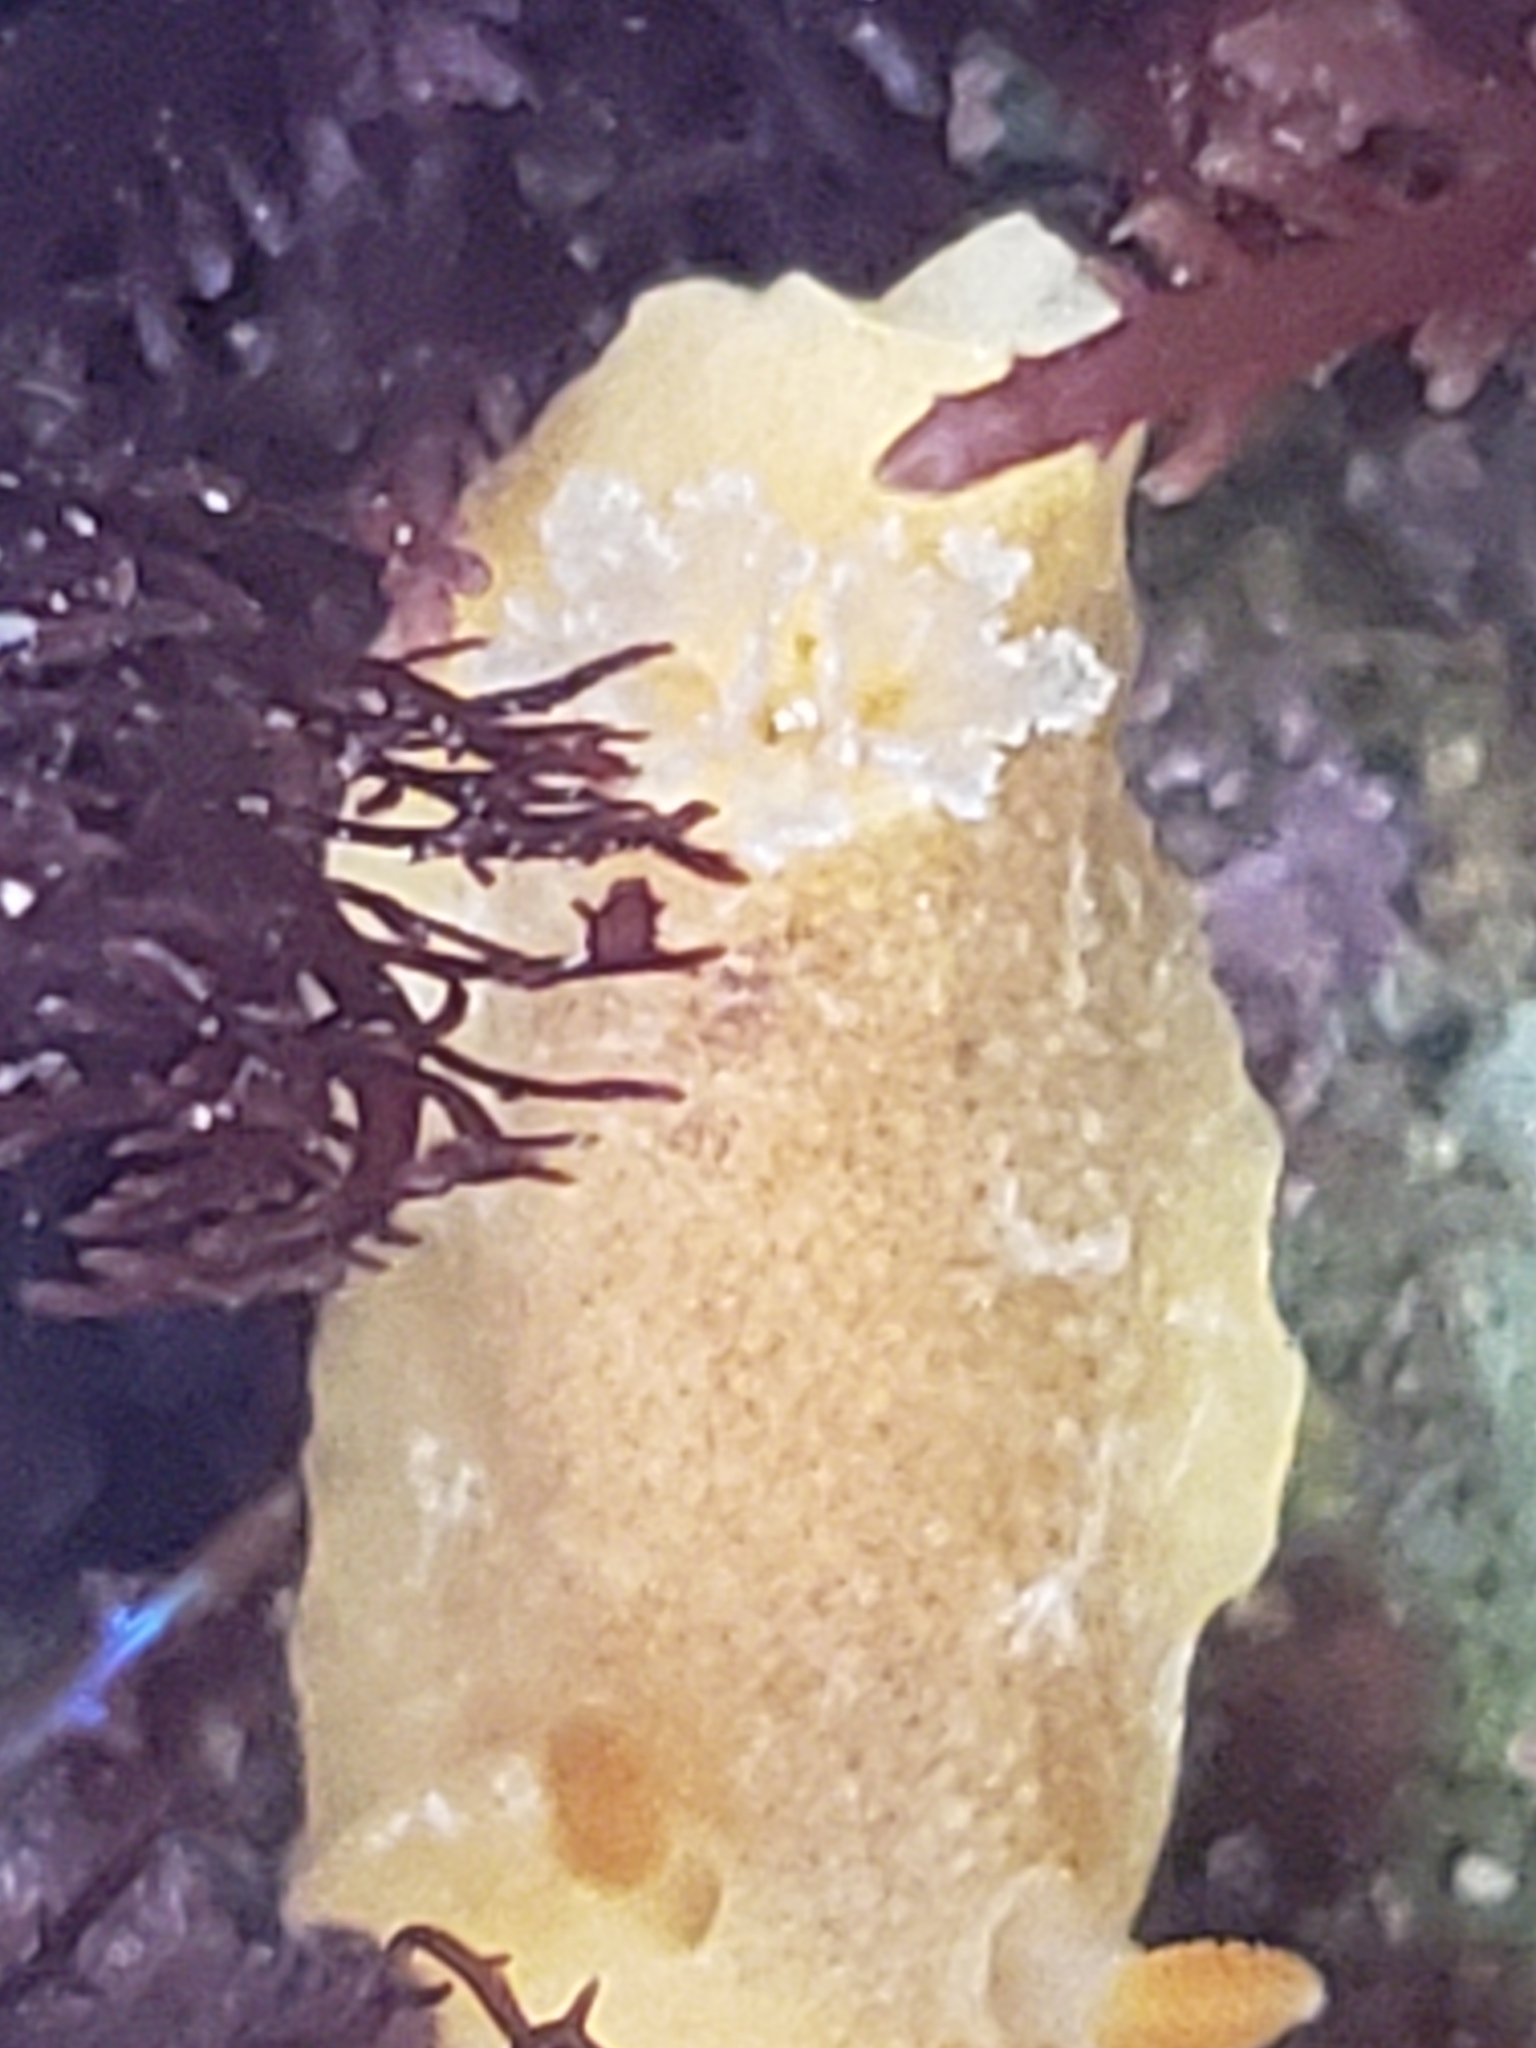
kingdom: Animalia
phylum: Mollusca
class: Gastropoda
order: Nudibranchia
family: Discodorididae
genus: Geitodoris
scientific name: Geitodoris heathi
